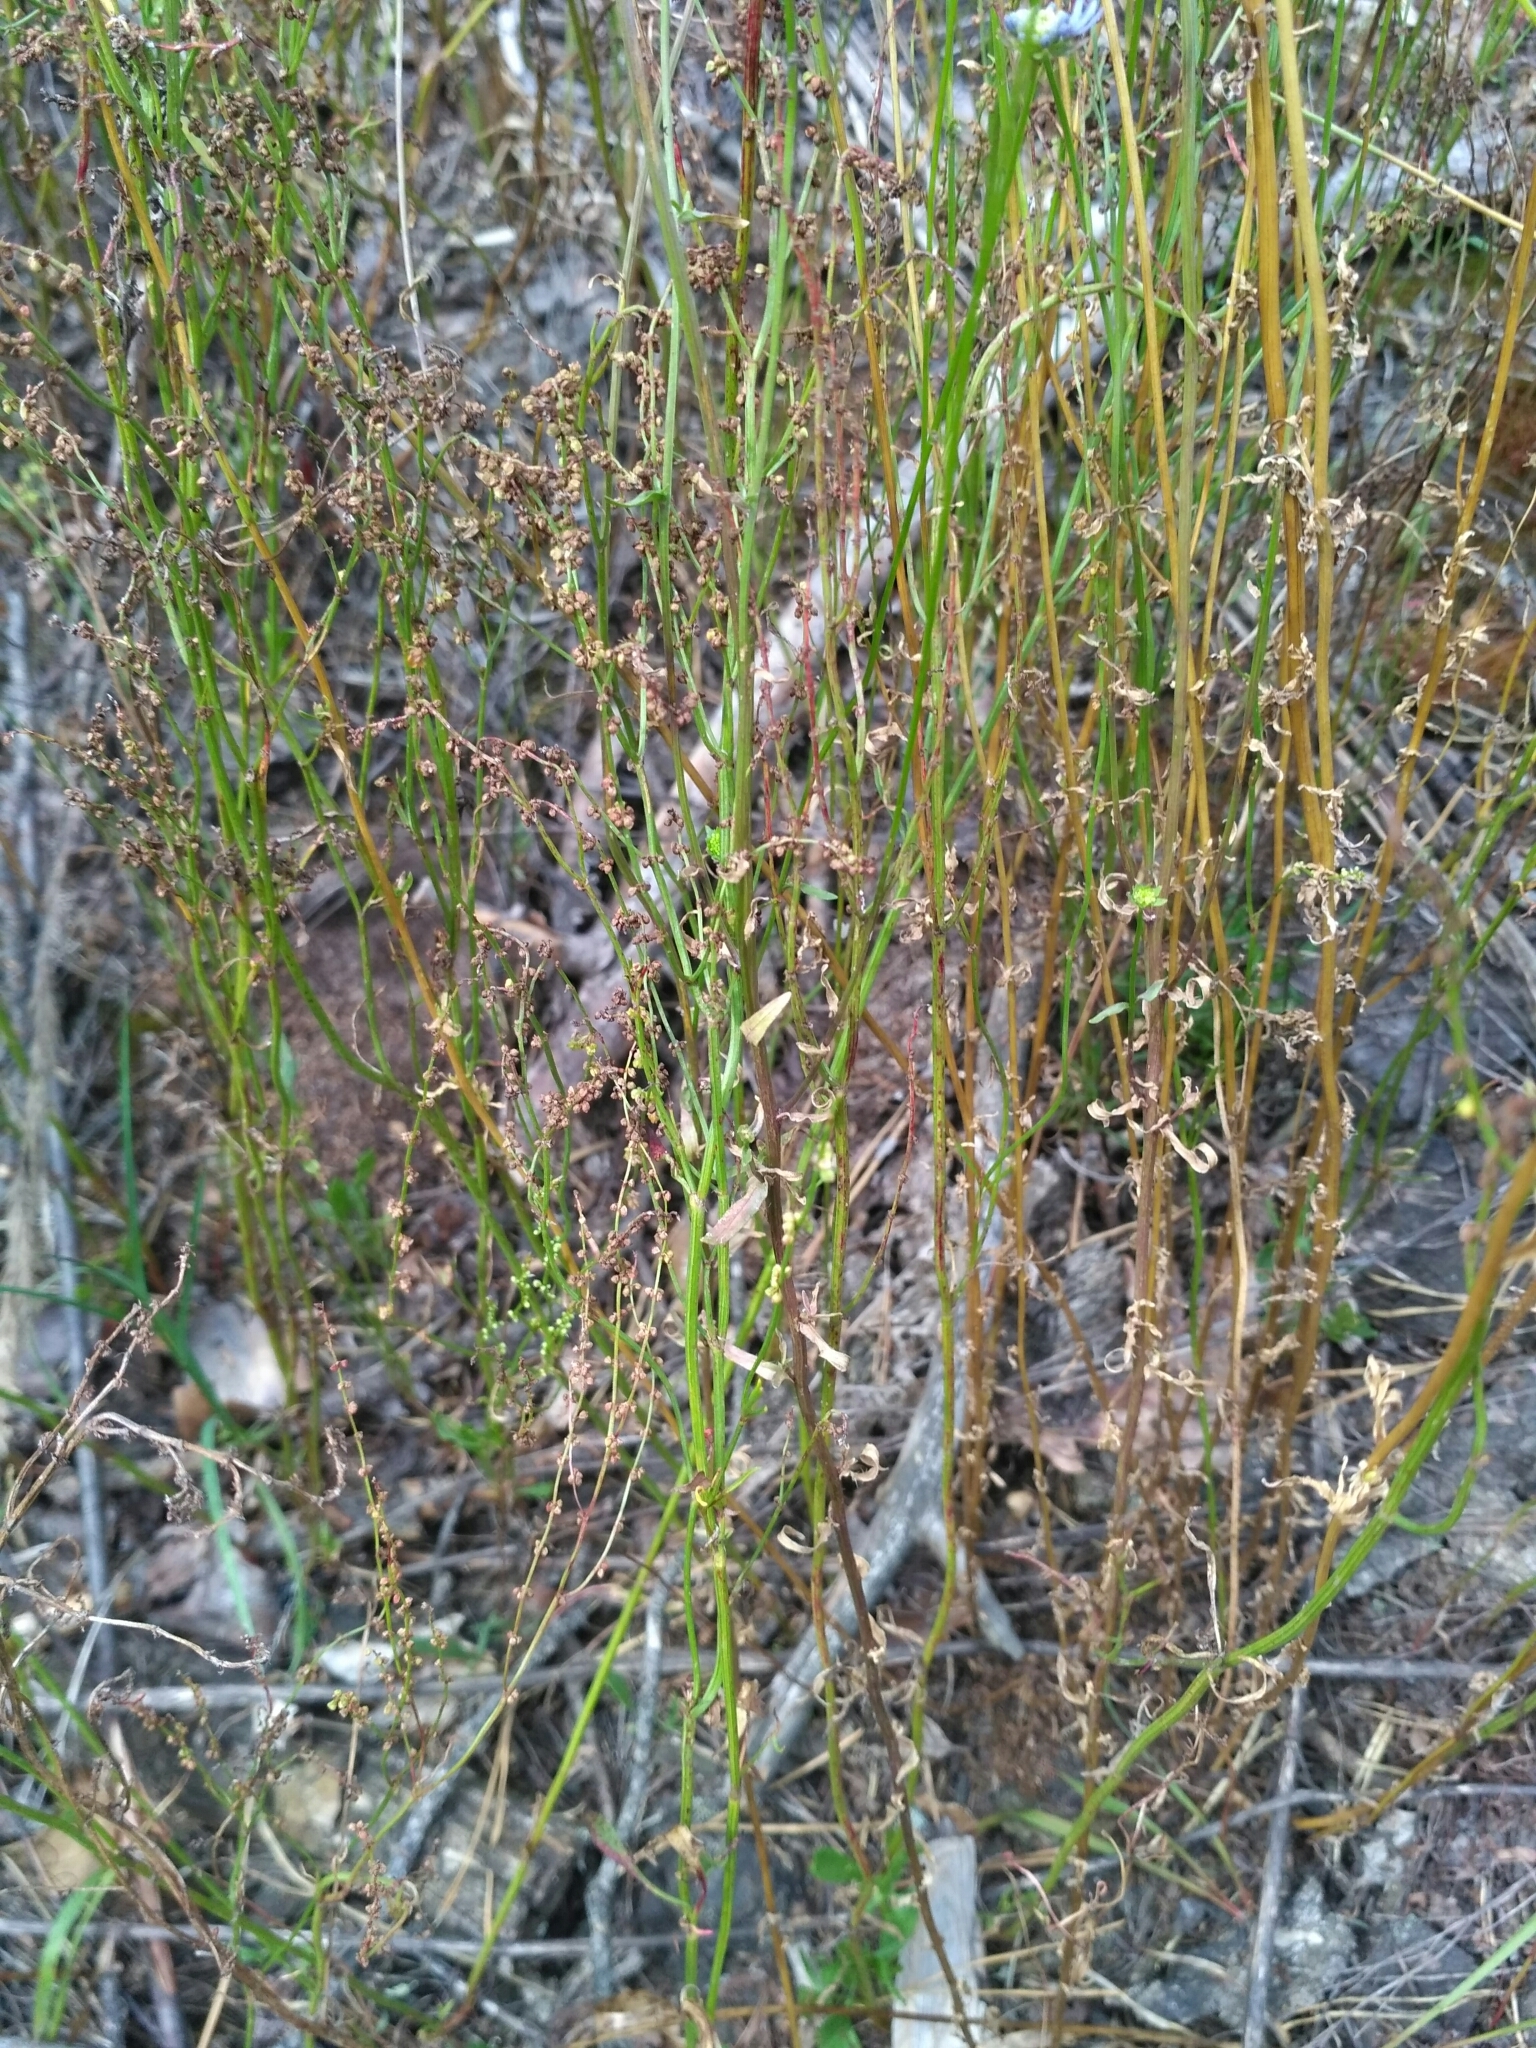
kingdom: Plantae
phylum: Tracheophyta
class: Magnoliopsida
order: Asterales
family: Campanulaceae
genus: Jasione
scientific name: Jasione montana
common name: Sheep's-bit
